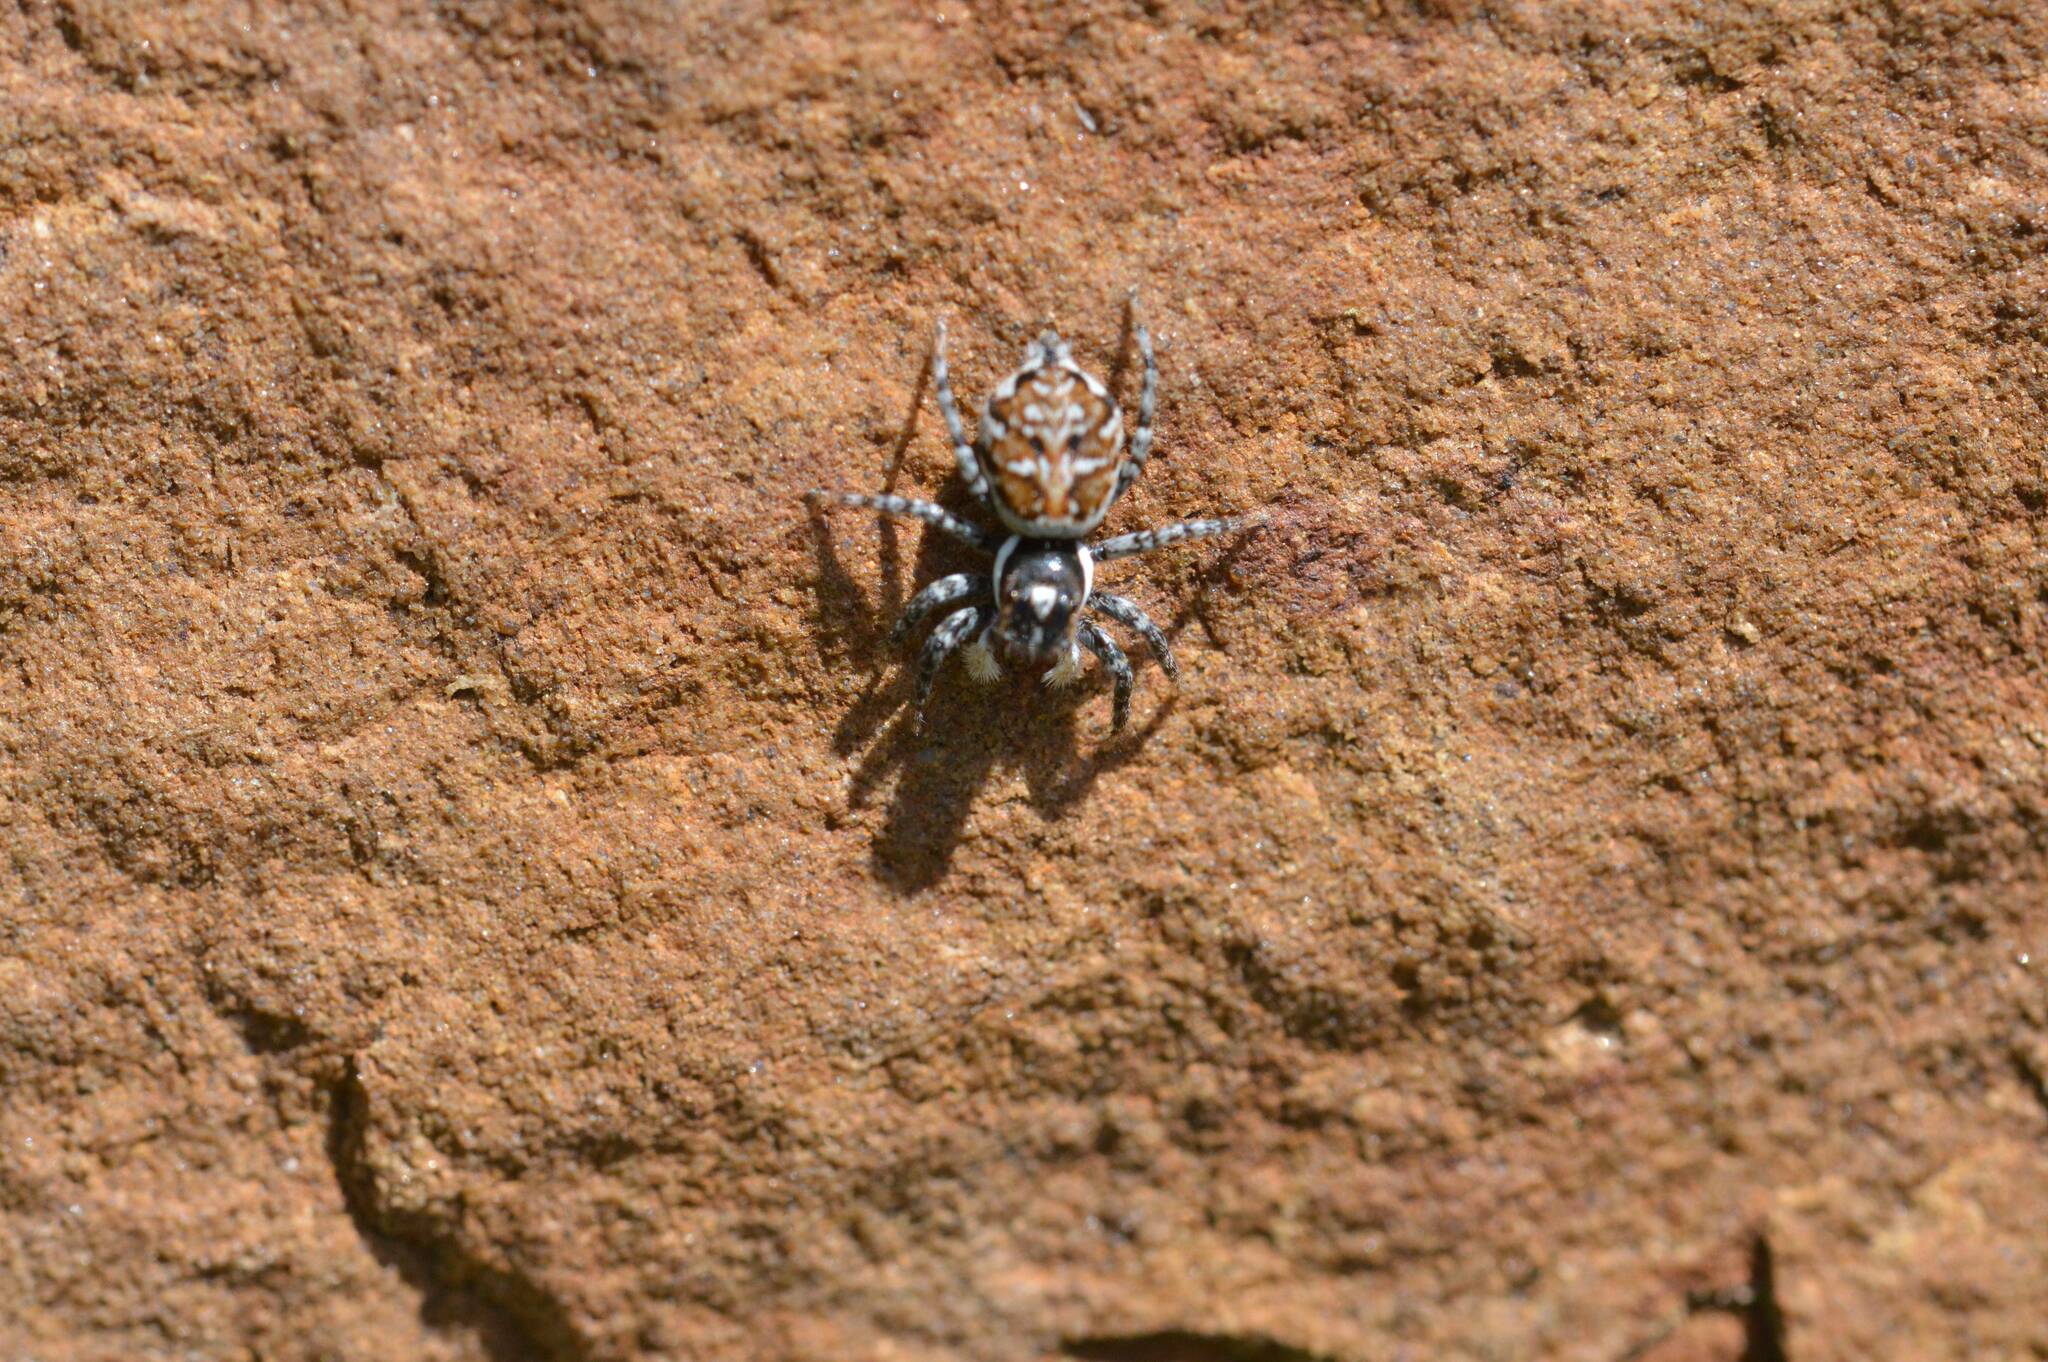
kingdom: Animalia
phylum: Arthropoda
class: Arachnida
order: Araneae
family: Salticidae
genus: Menemerus
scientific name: Menemerus semilimbatus
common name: Jumping spider
